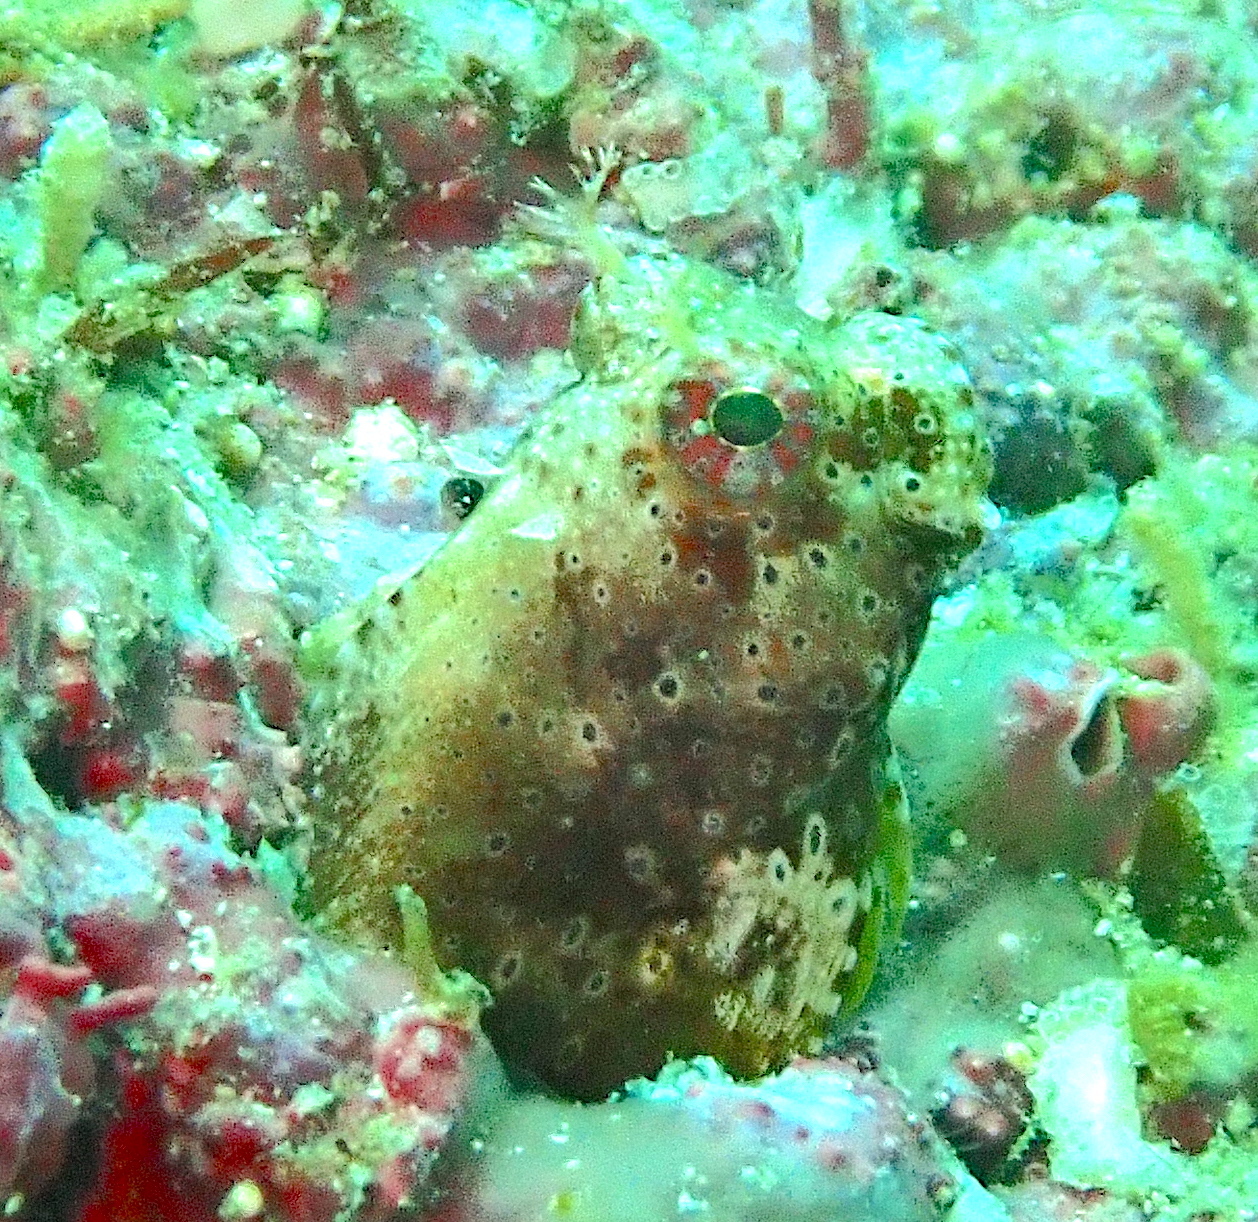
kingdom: Animalia
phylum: Chordata
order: Perciformes
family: Blenniidae
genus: Salarias
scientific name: Salarias ramosus
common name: Snowflake blenny
